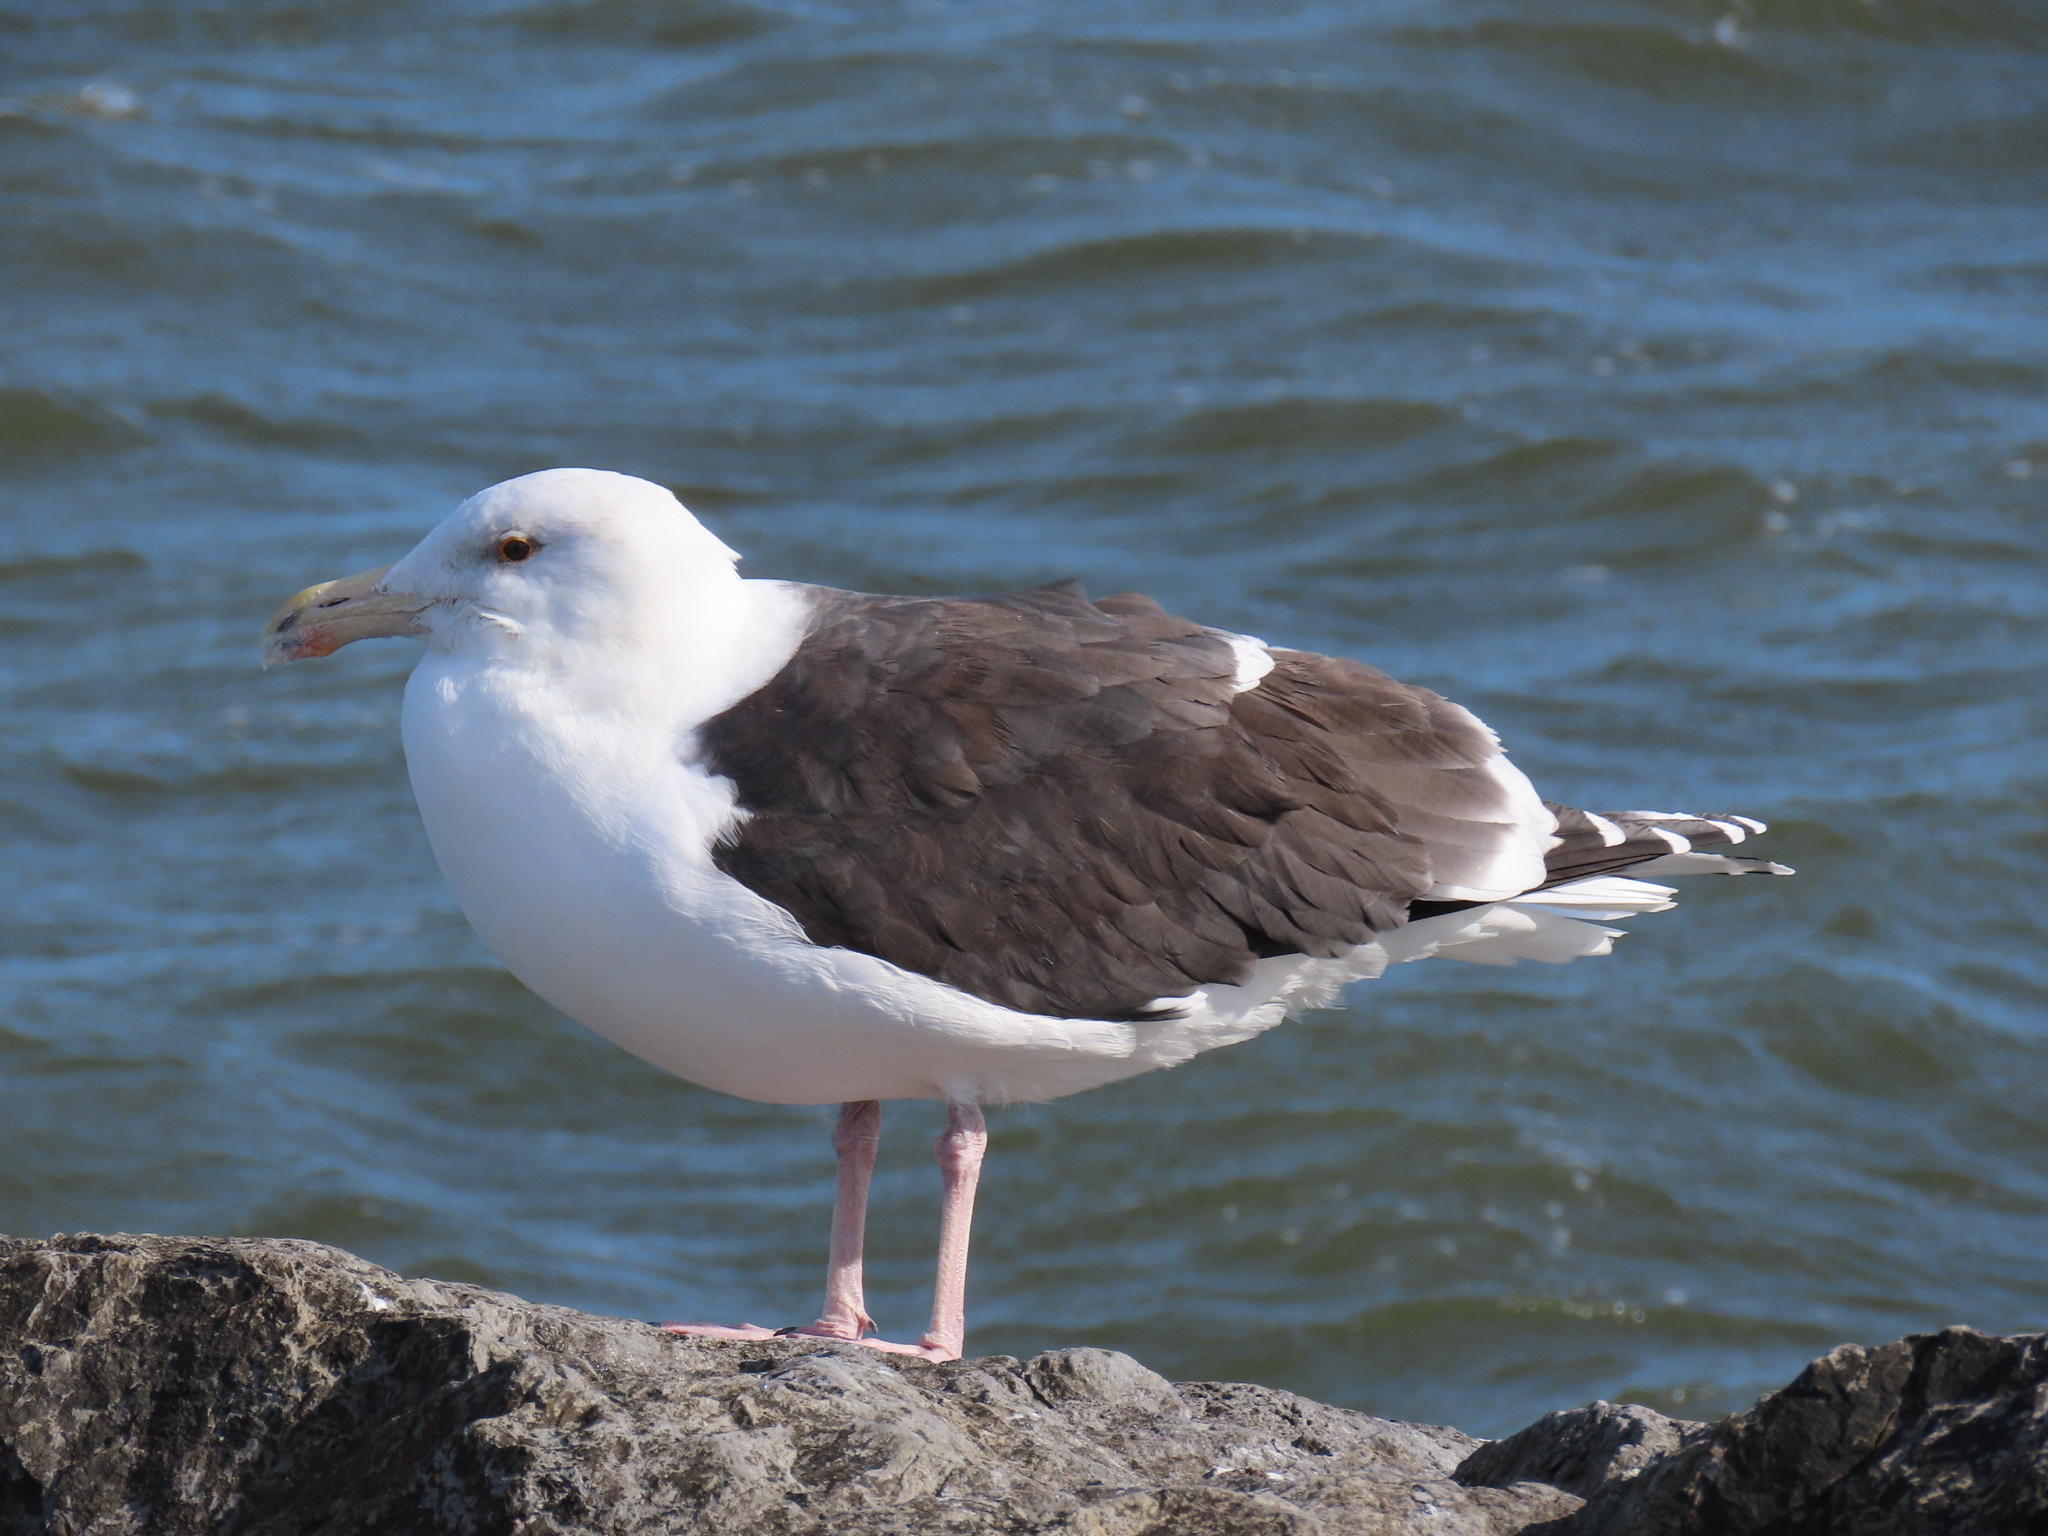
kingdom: Animalia
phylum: Chordata
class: Aves
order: Charadriiformes
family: Laridae
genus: Larus
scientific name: Larus marinus
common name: Great black-backed gull
